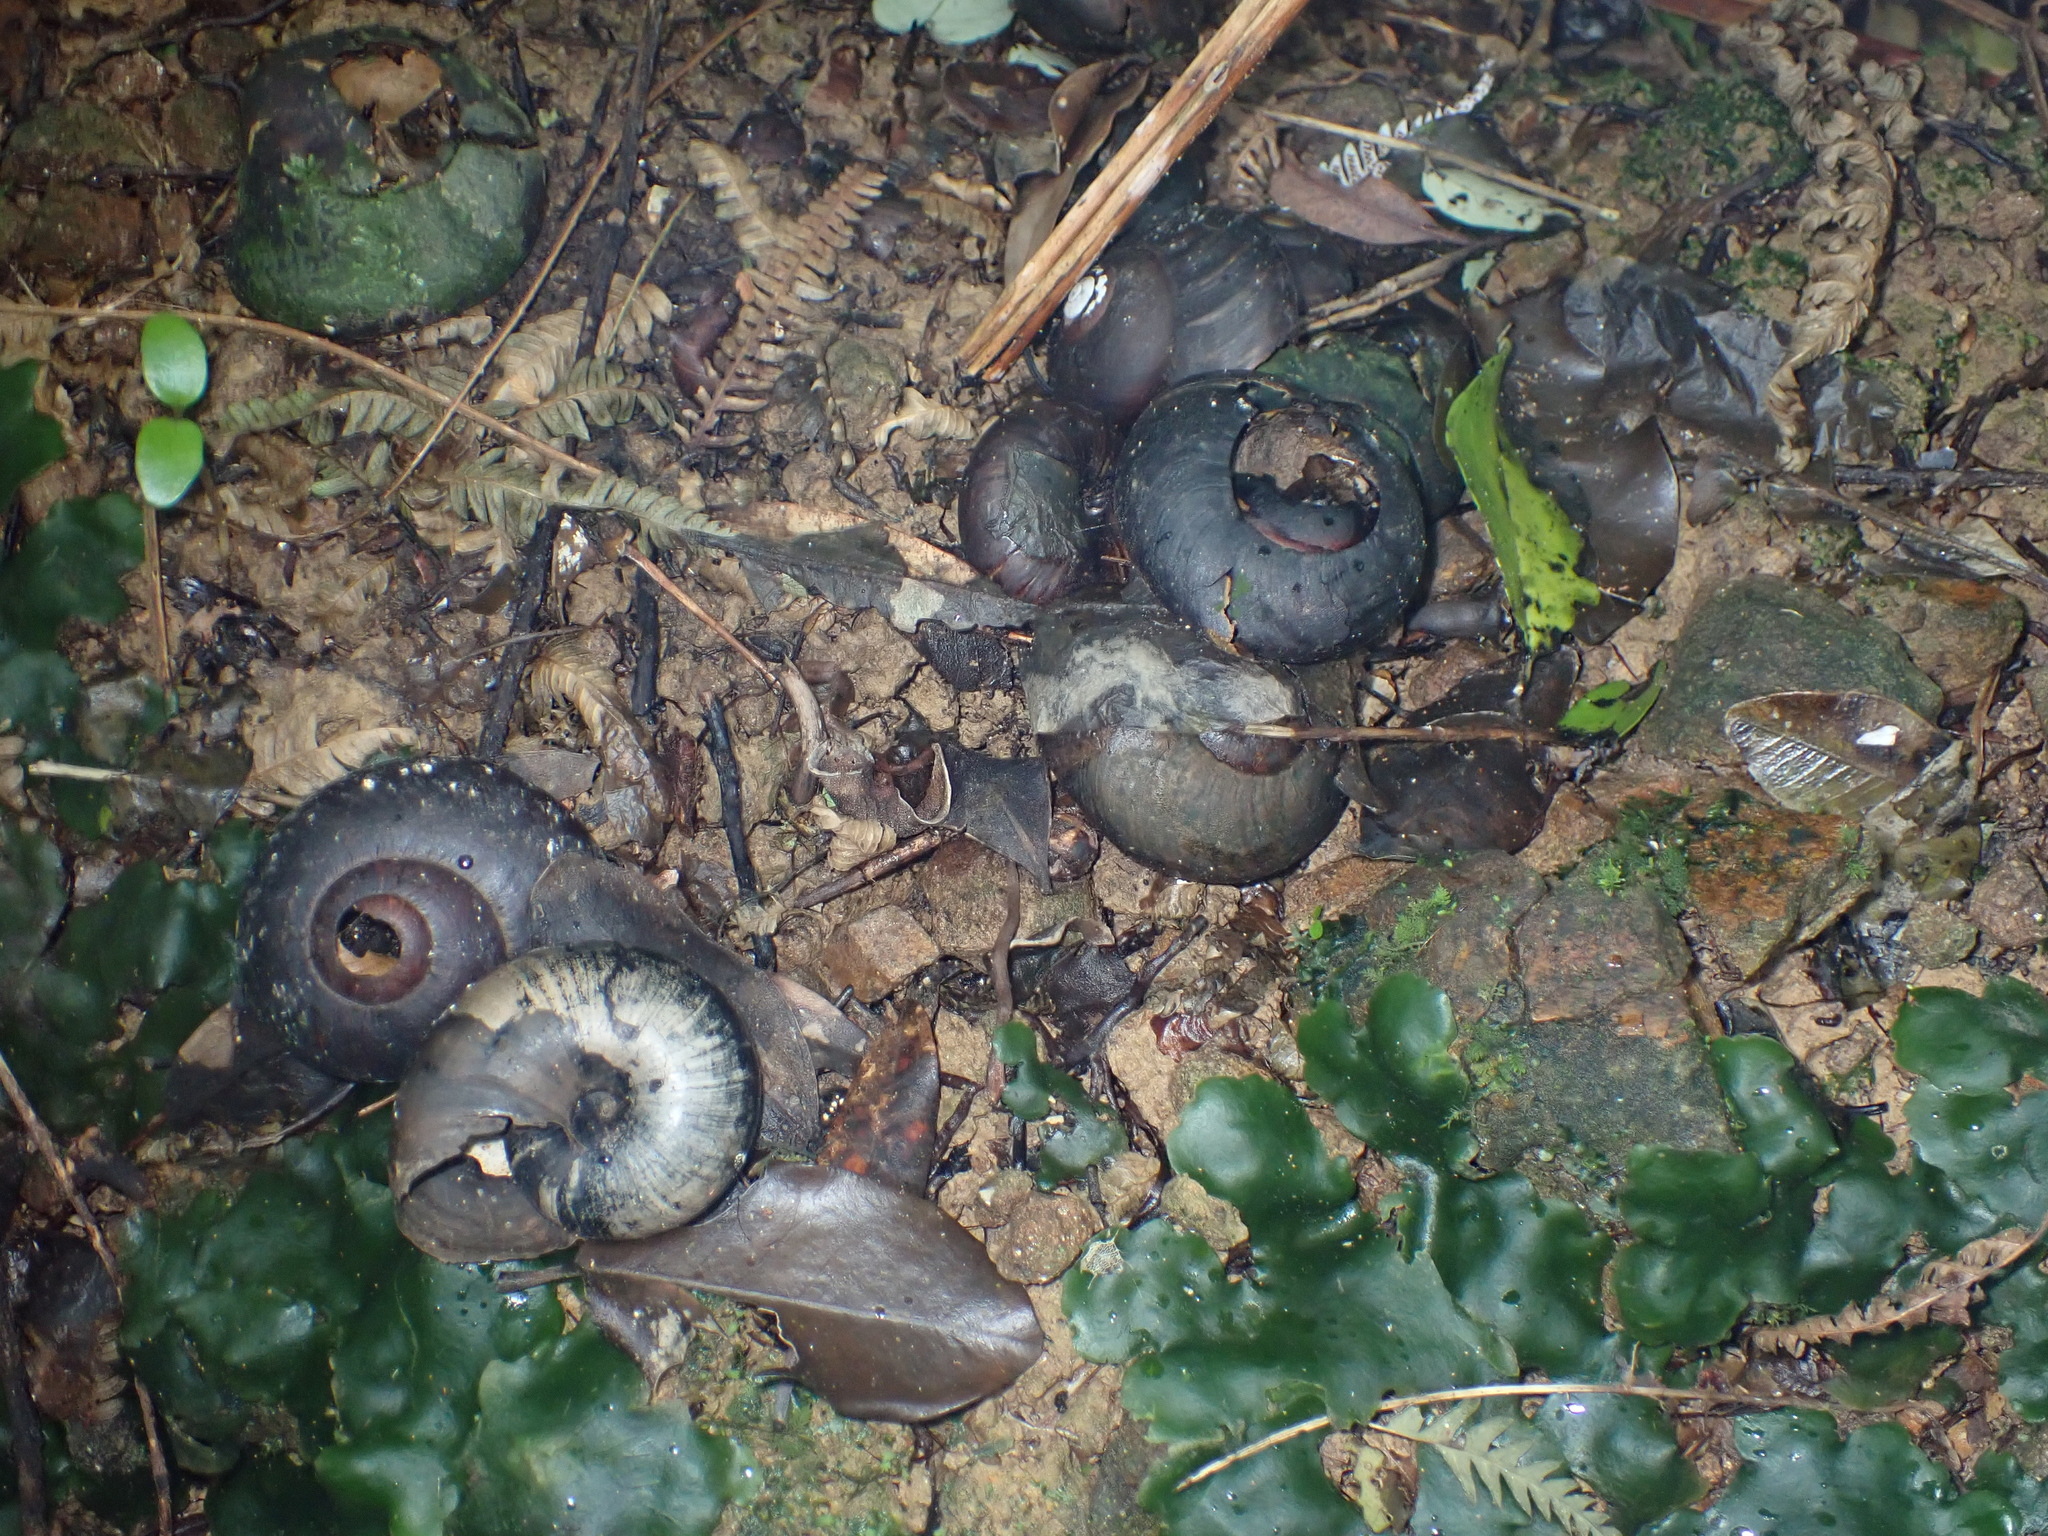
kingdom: Animalia
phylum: Mollusca
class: Gastropoda
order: Stylommatophora
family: Rhytididae
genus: Powelliphanta
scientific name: Powelliphanta traversi
